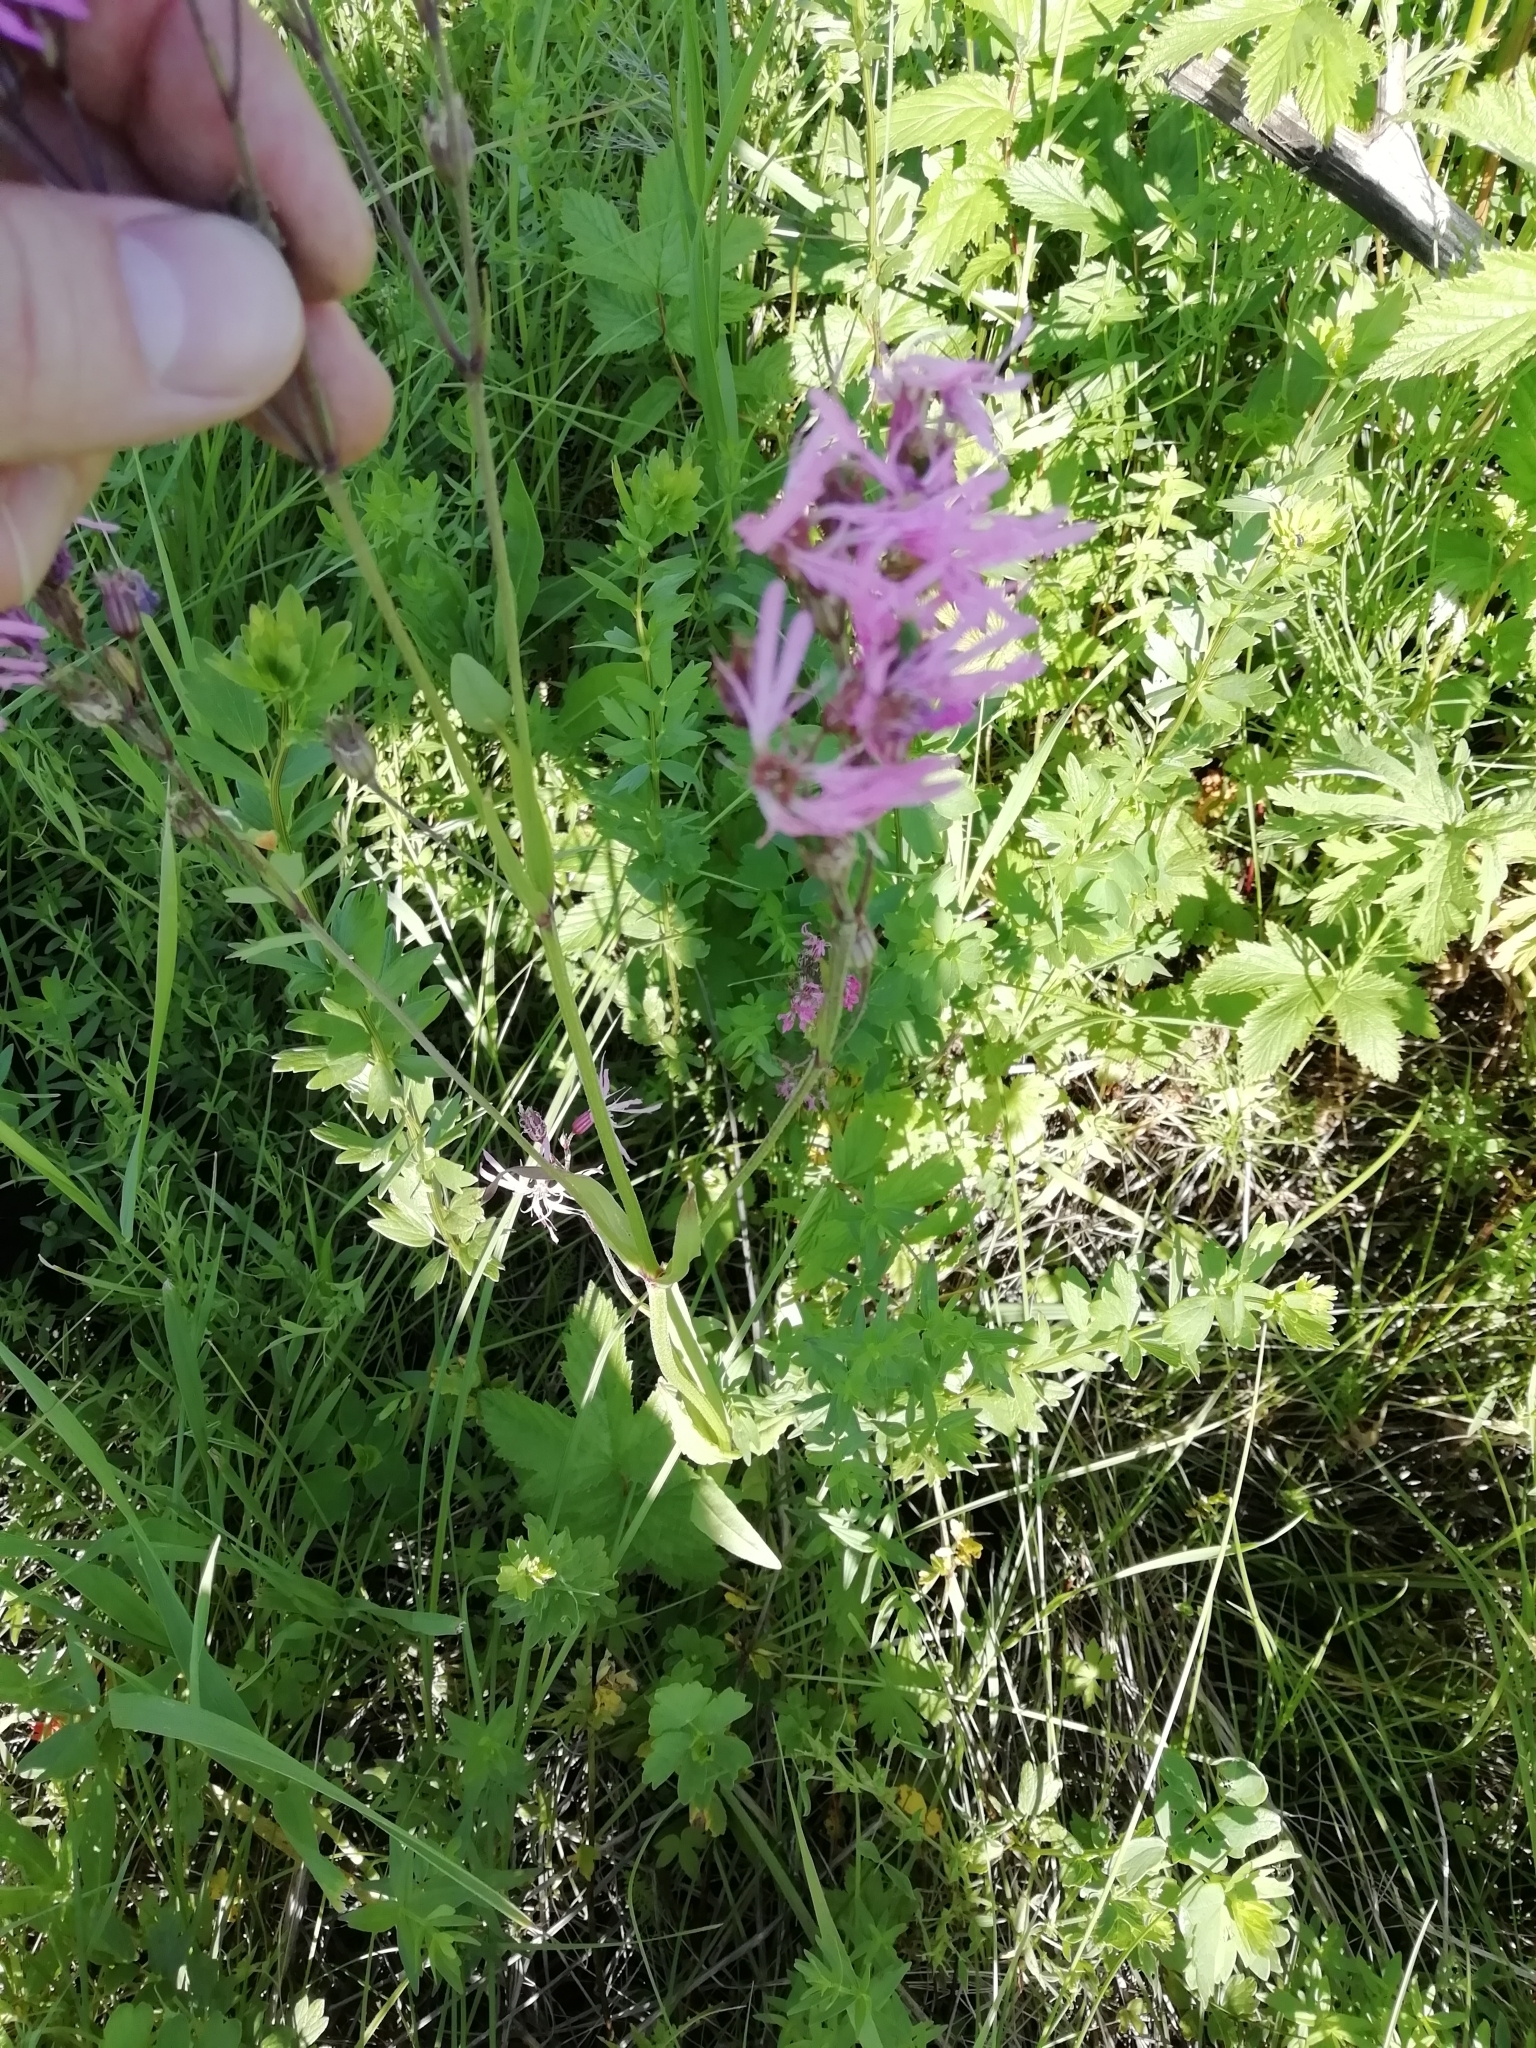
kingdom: Plantae
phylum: Tracheophyta
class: Magnoliopsida
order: Caryophyllales
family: Caryophyllaceae
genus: Silene
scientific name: Silene flos-cuculi
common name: Ragged-robin
